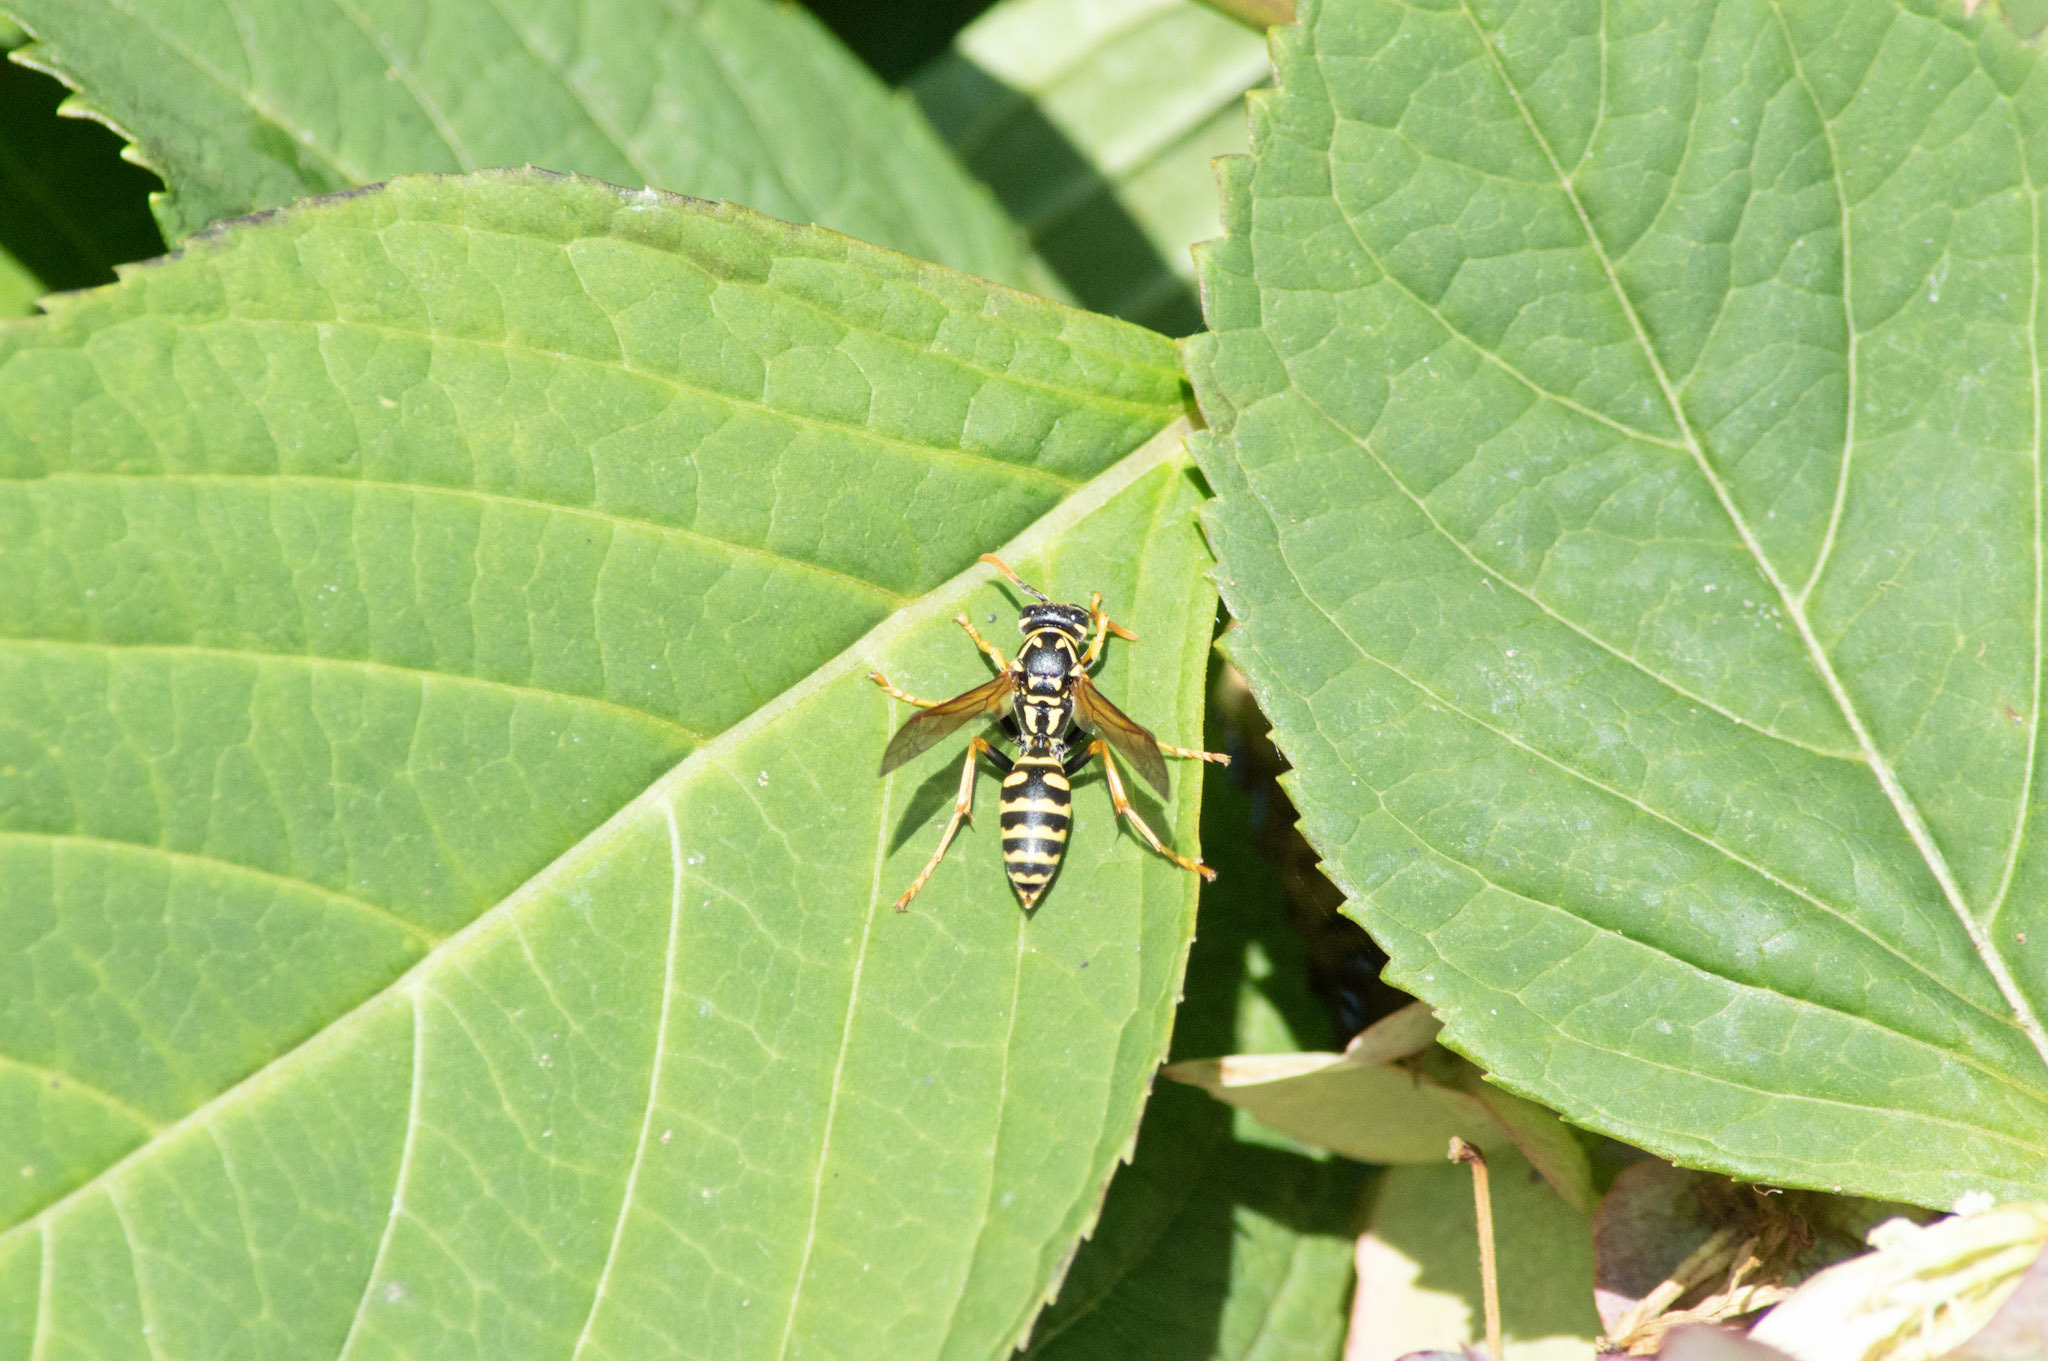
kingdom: Animalia
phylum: Arthropoda
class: Insecta
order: Hymenoptera
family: Eumenidae
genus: Polistes
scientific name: Polistes dominula
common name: Paper wasp
